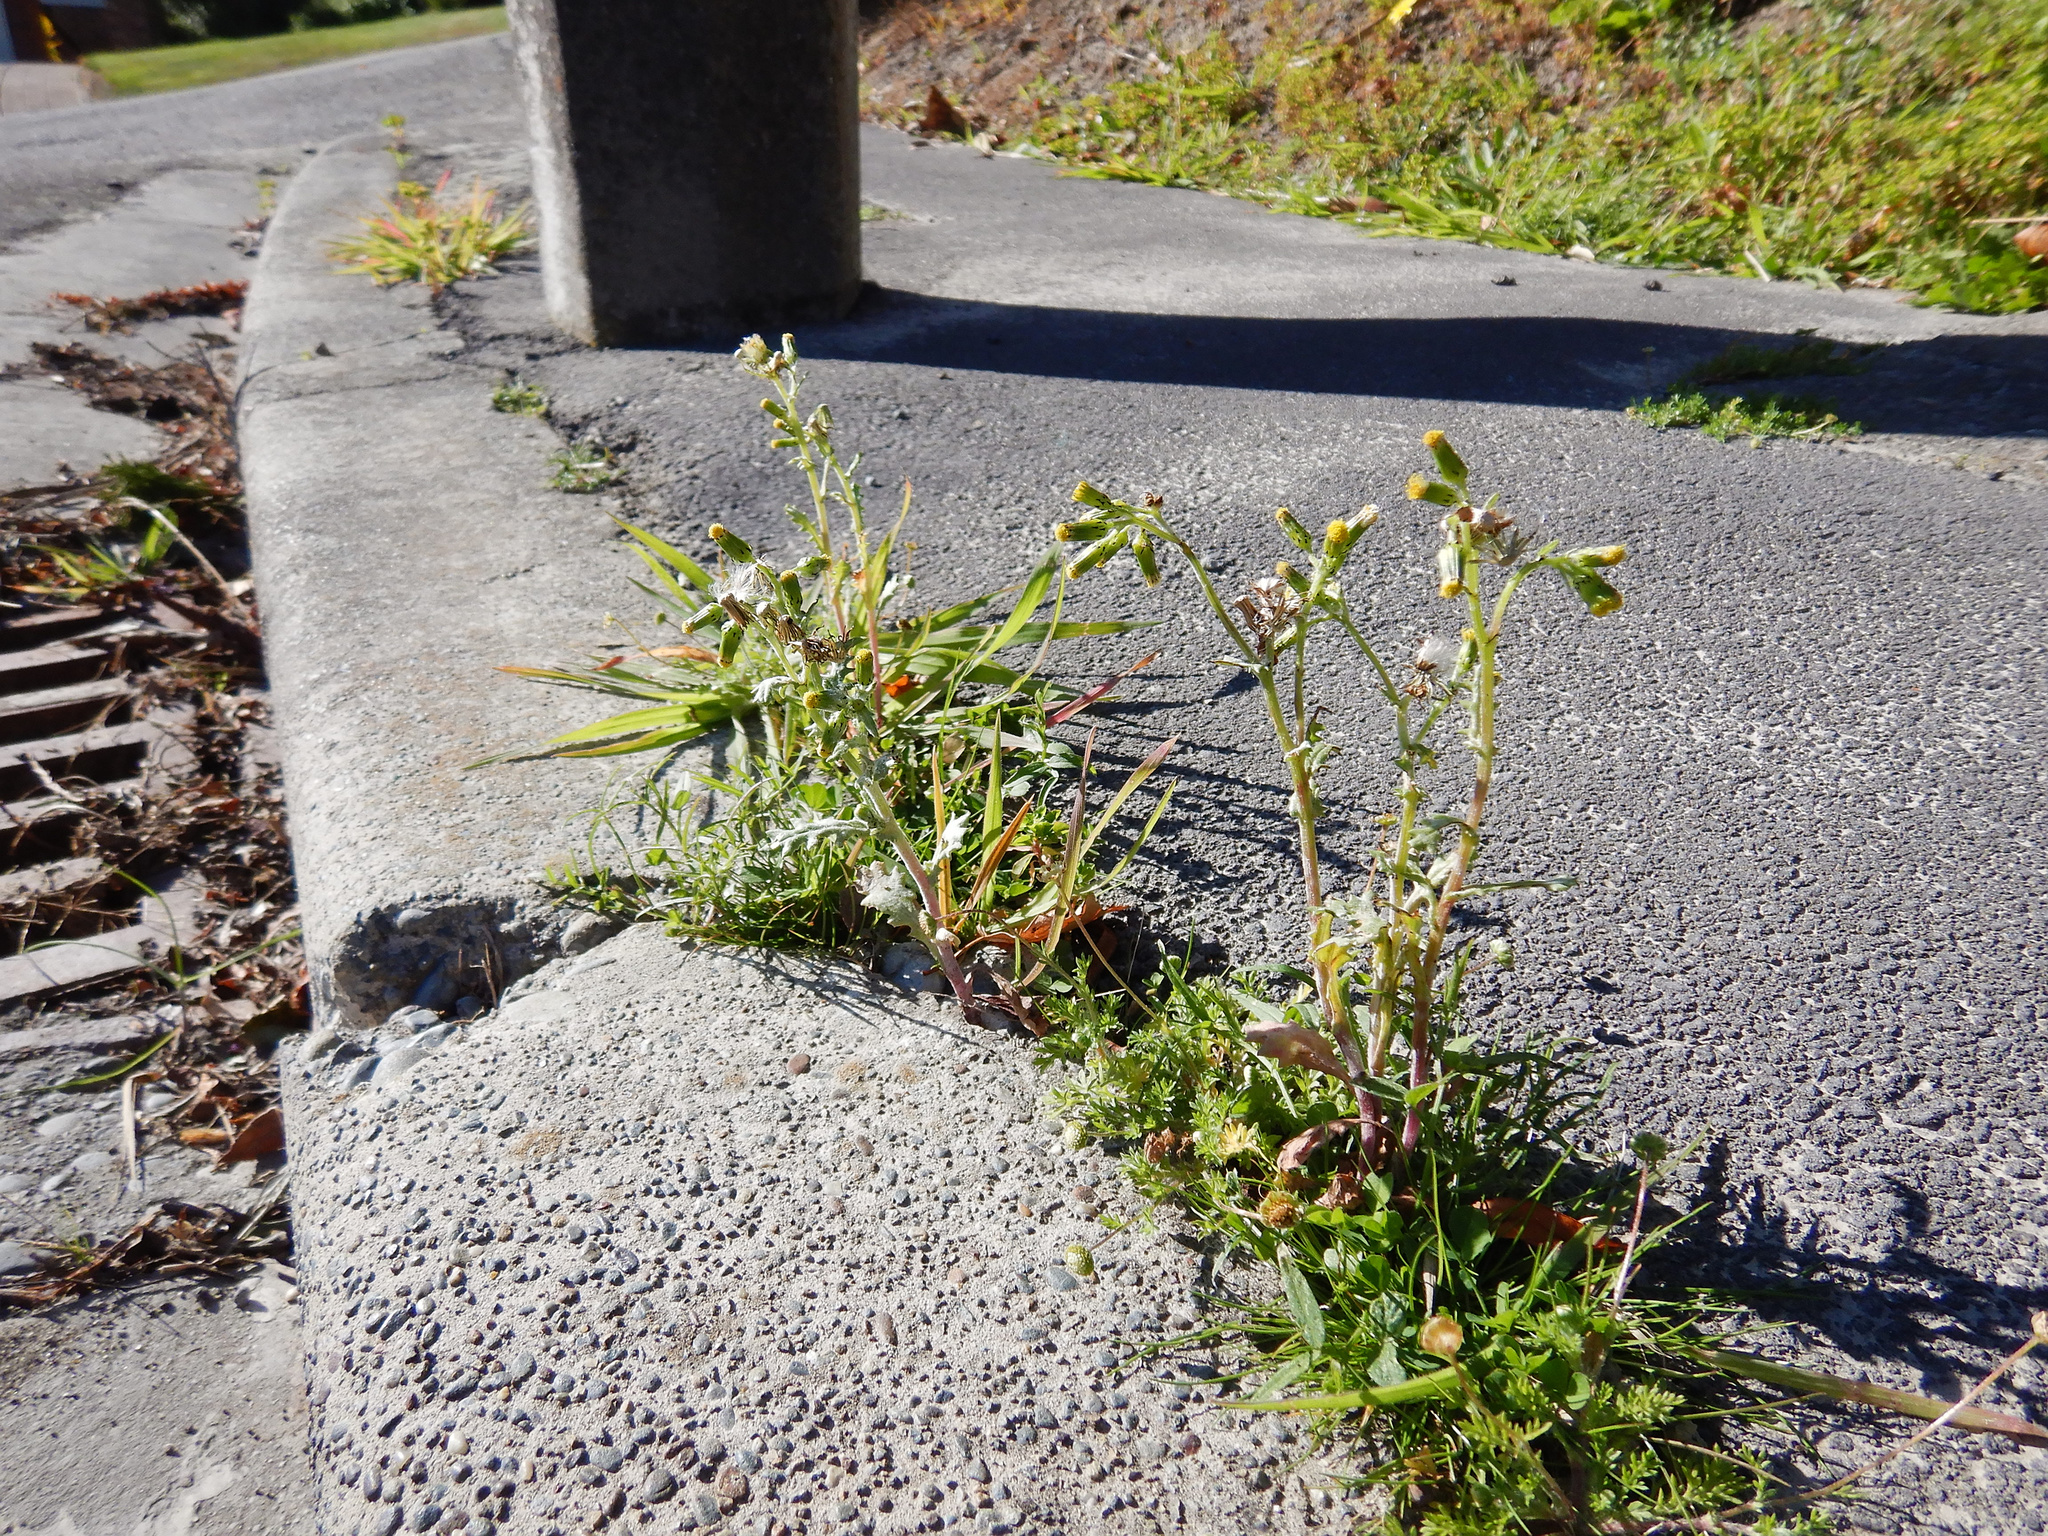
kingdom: Plantae
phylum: Tracheophyta
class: Magnoliopsida
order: Asterales
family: Asteraceae
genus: Senecio
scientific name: Senecio vulgaris
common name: Old-man-in-the-spring
